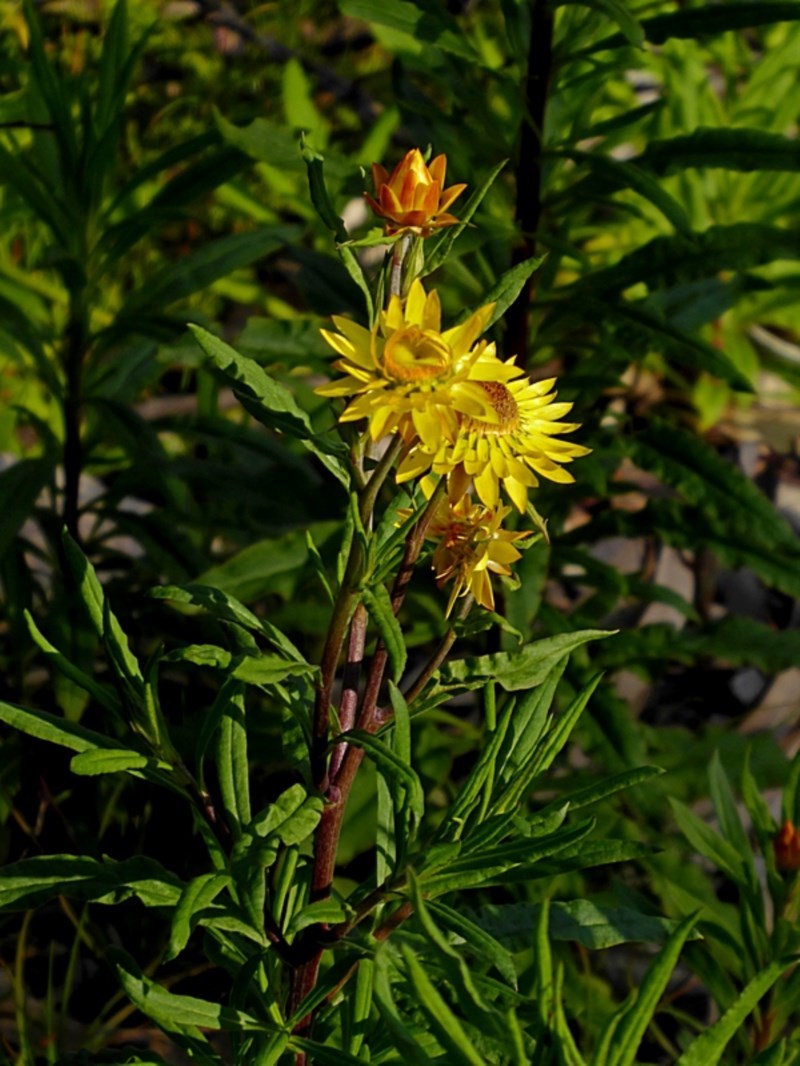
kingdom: Plantae
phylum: Tracheophyta
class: Magnoliopsida
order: Asterales
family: Asteraceae
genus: Xerochrysum
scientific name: Xerochrysum bracteatum
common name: Bracted strawflower
